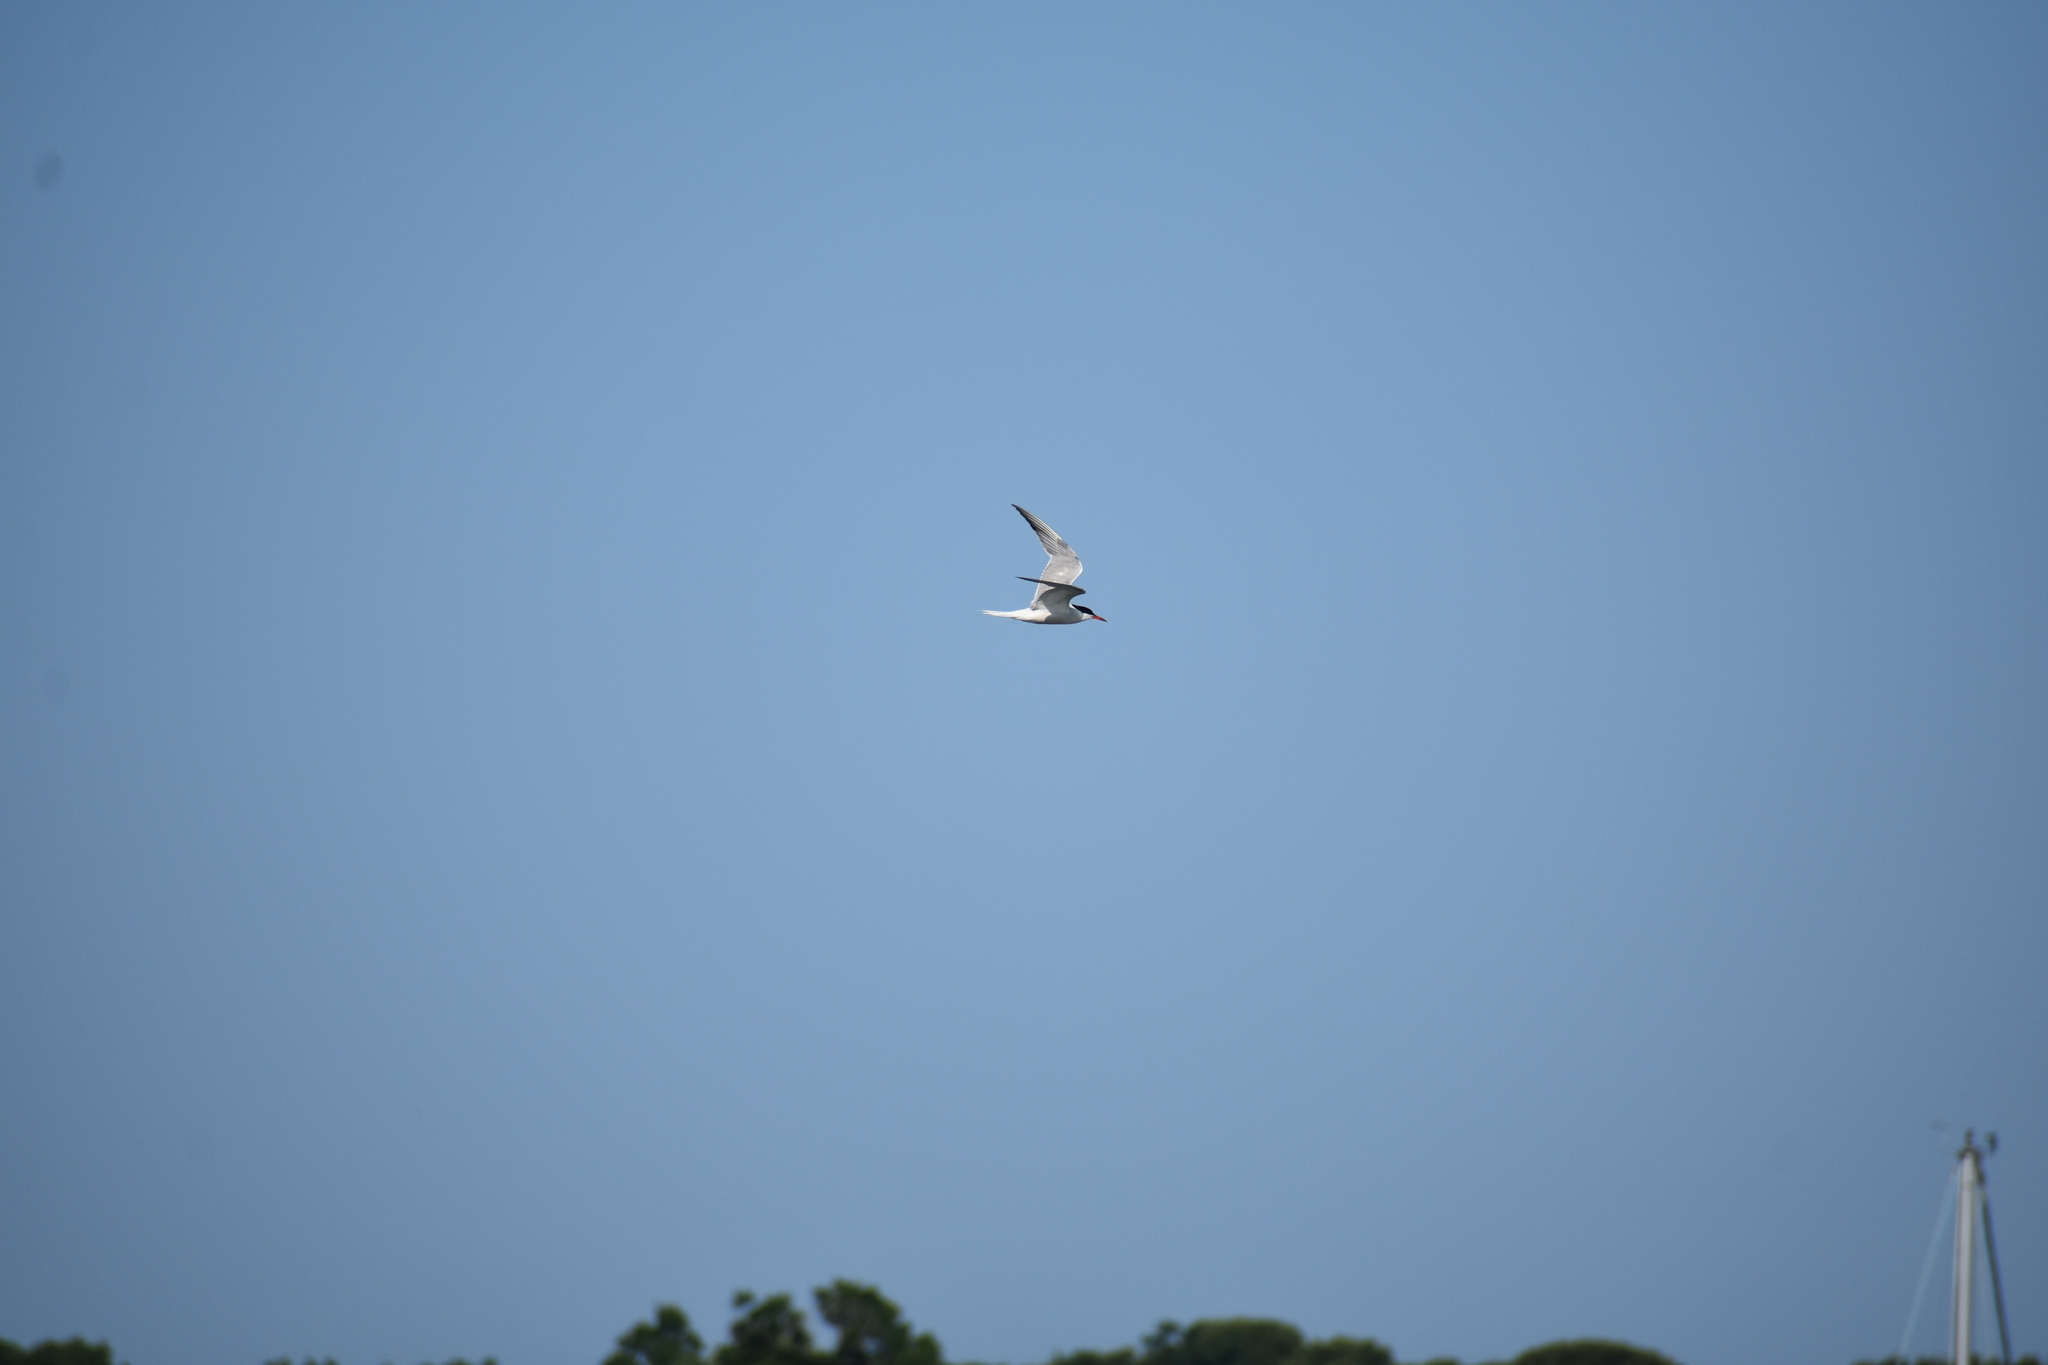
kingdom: Animalia
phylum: Chordata
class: Aves
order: Charadriiformes
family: Laridae
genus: Sterna
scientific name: Sterna hirundo
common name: Common tern
